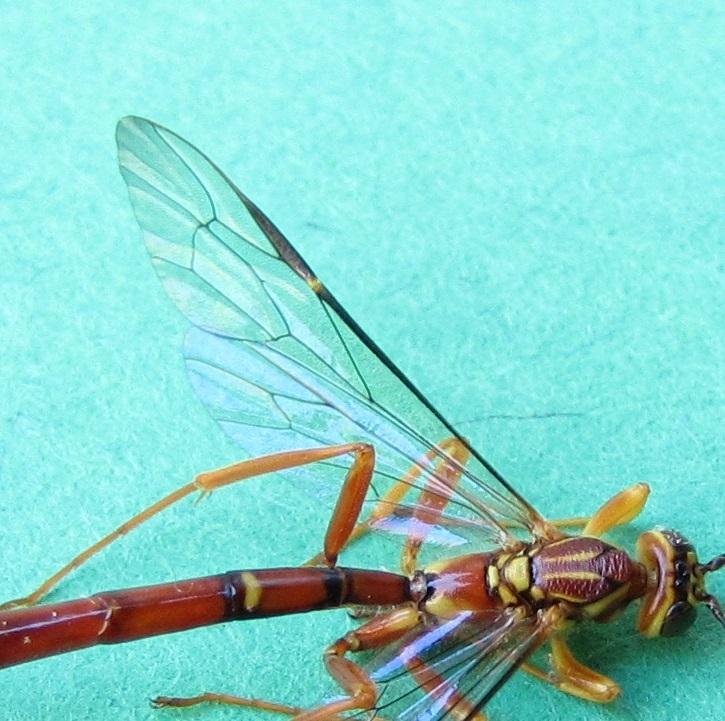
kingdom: Animalia
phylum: Arthropoda
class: Insecta
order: Hymenoptera
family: Ichneumonidae
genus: Megarhyssa
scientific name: Megarhyssa greenei
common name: Greene's giant ichneumonid wasp
